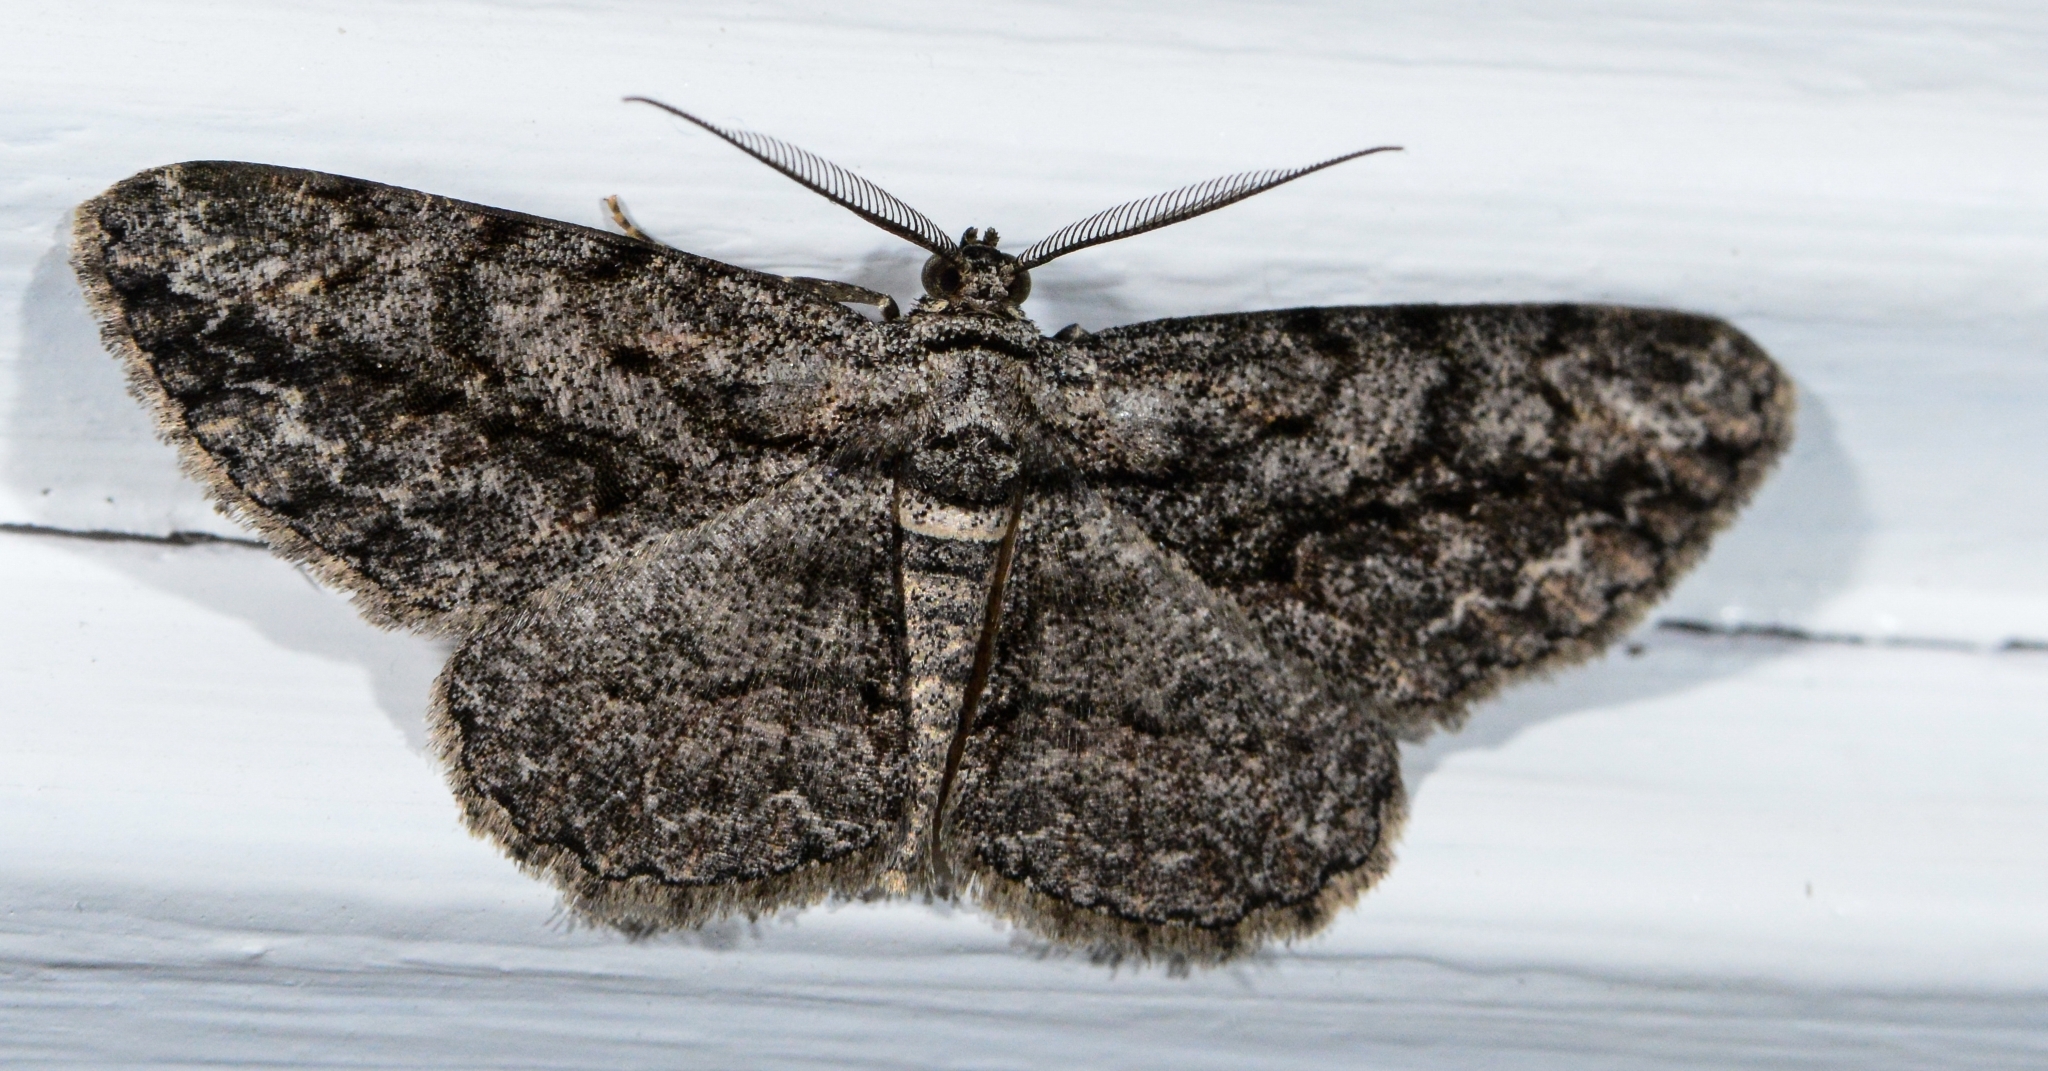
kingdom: Animalia
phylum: Arthropoda
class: Insecta
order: Lepidoptera
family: Geometridae
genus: Anavitrinella
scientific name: Anavitrinella pampinaria
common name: Common gray
